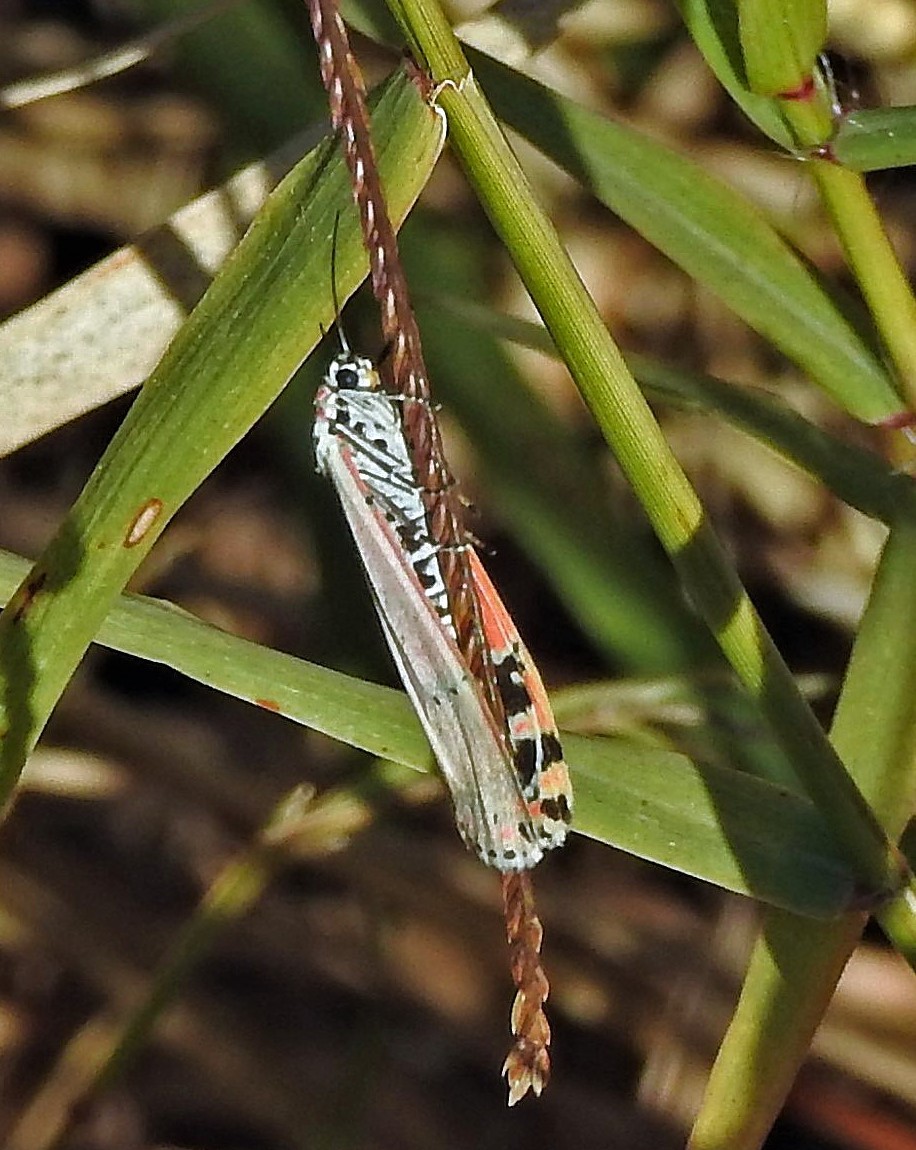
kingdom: Animalia
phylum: Arthropoda
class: Insecta
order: Lepidoptera
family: Erebidae
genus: Utetheisa
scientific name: Utetheisa ornatrix
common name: Beautiful utetheisa
